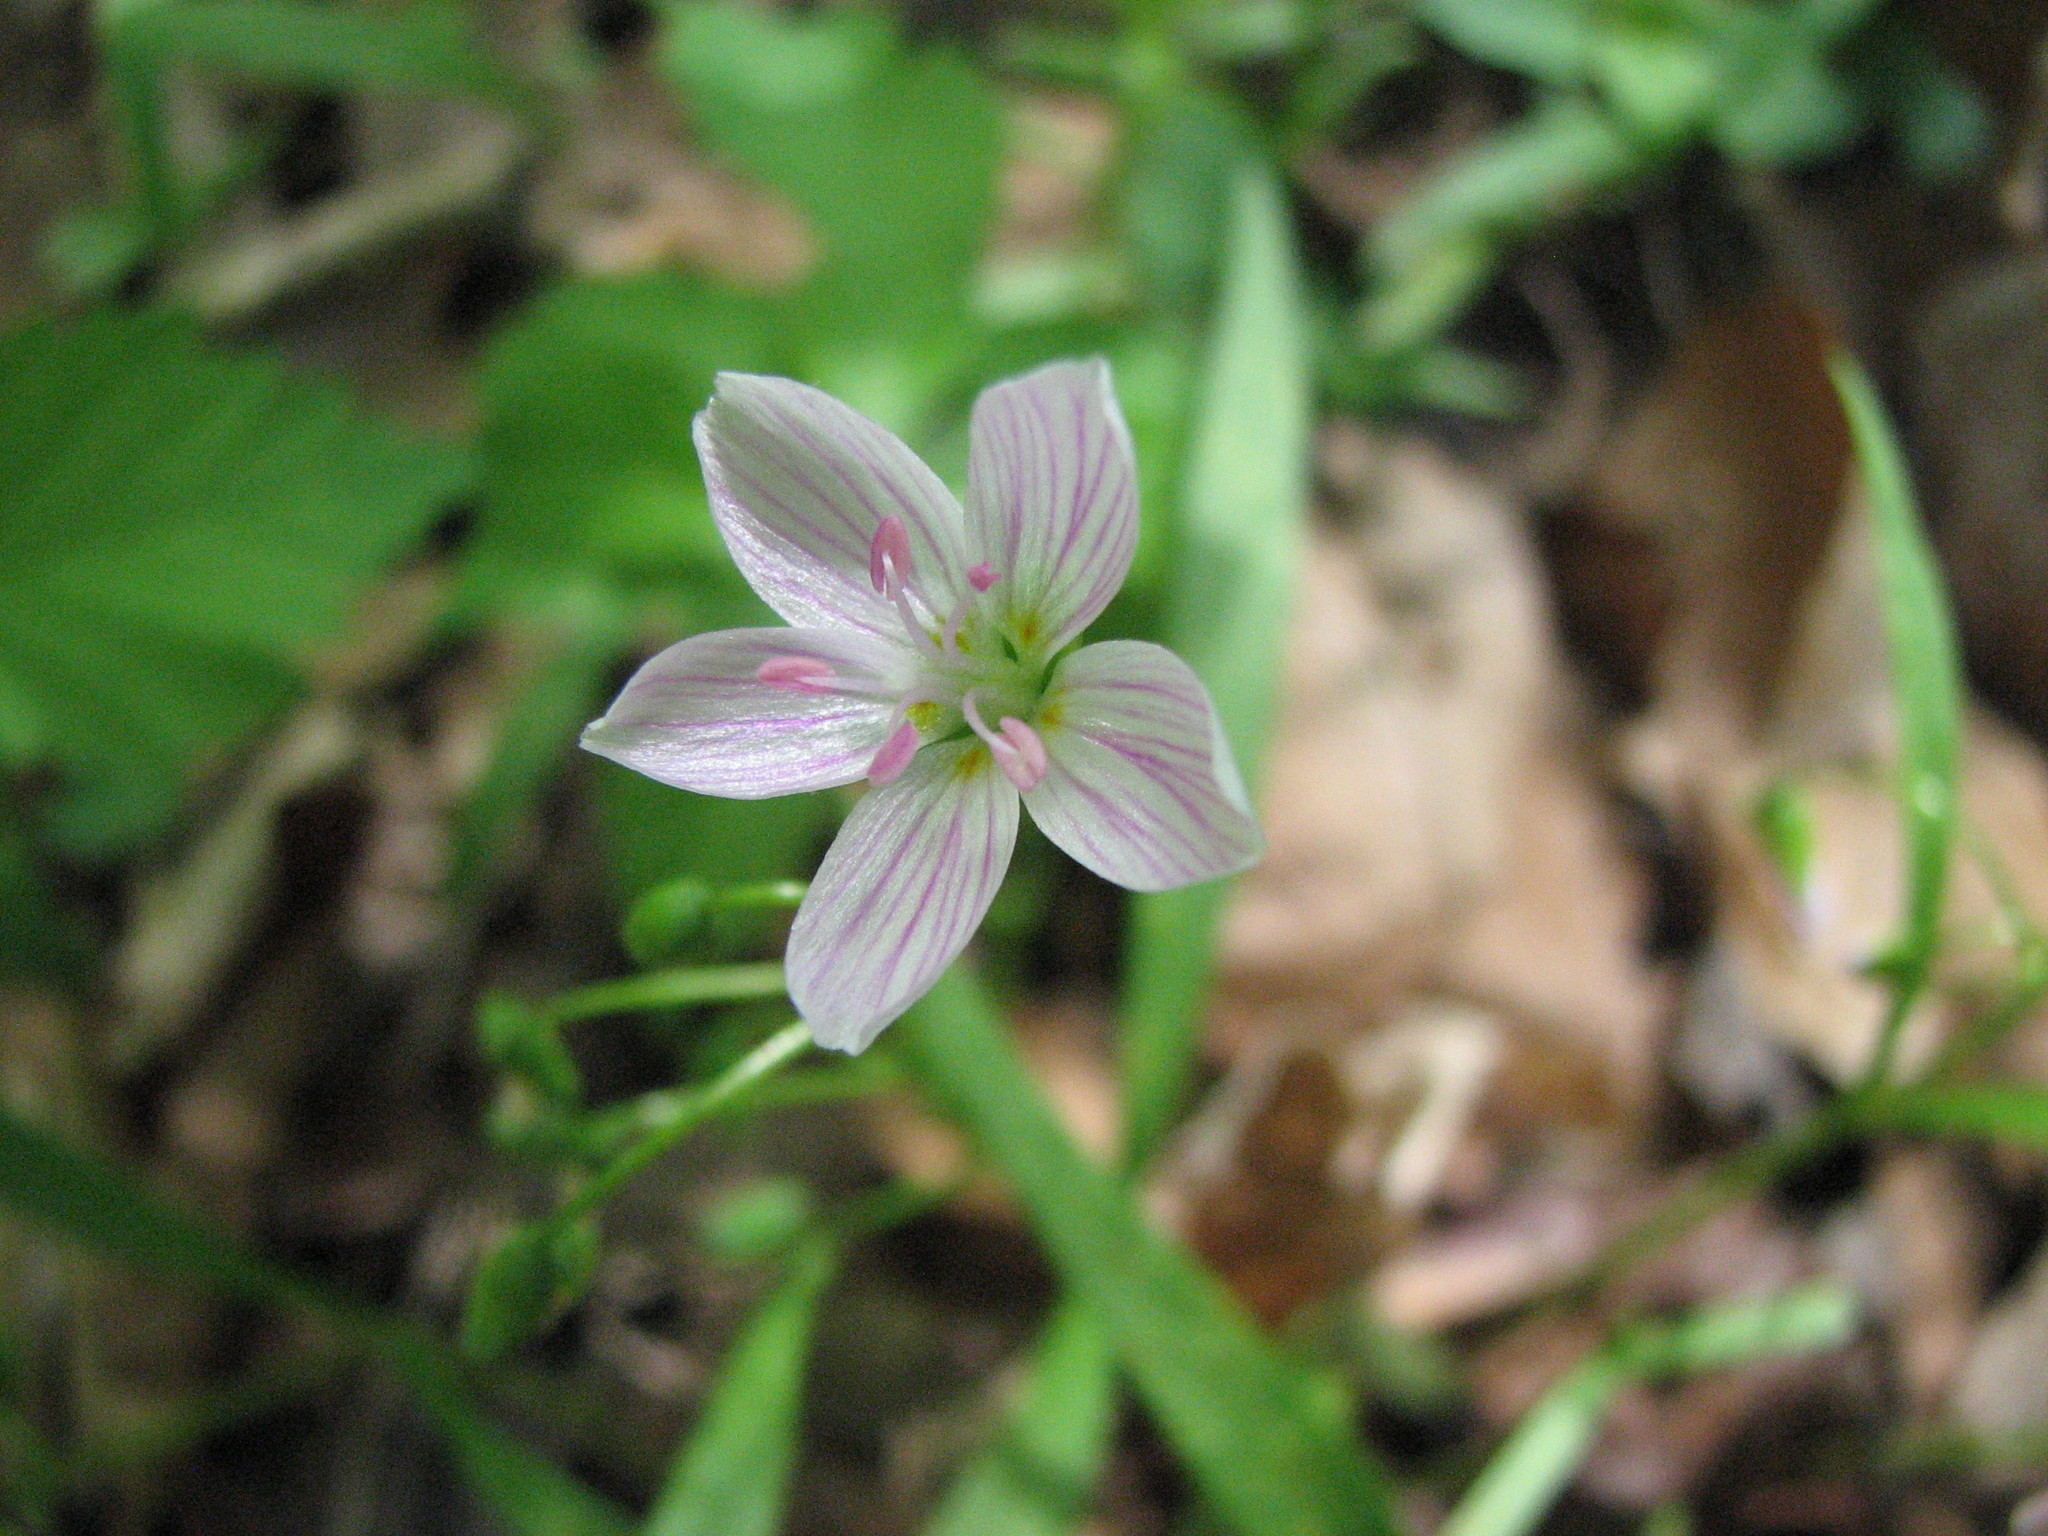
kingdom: Plantae
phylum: Tracheophyta
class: Magnoliopsida
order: Caryophyllales
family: Montiaceae
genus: Claytonia
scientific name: Claytonia virginica
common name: Virginia springbeauty
